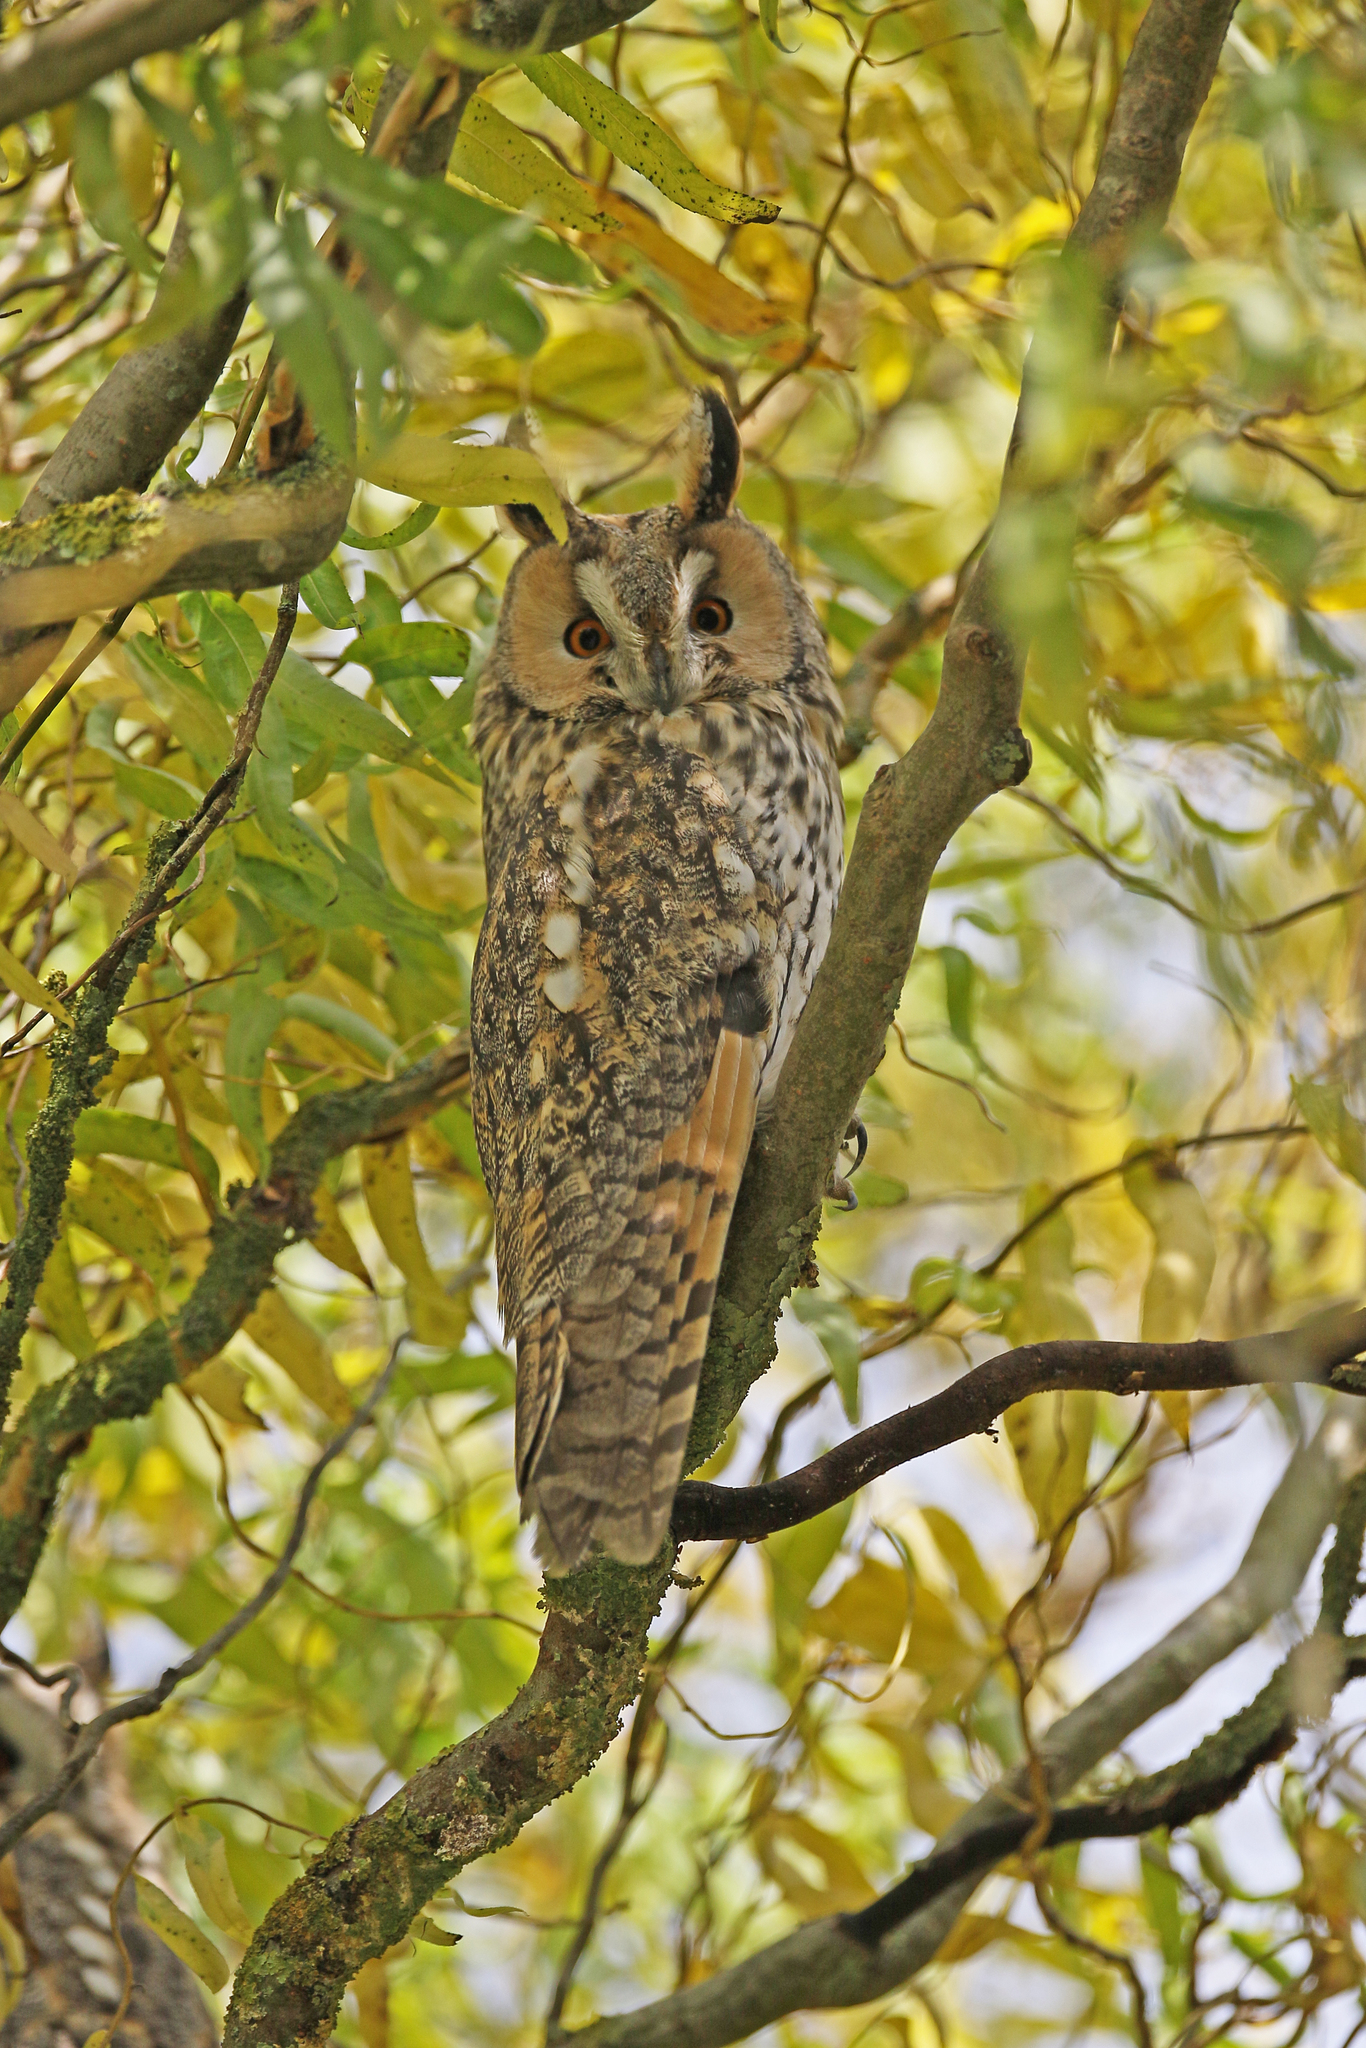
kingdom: Animalia
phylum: Chordata
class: Aves
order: Strigiformes
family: Strigidae
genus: Asio
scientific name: Asio otus
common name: Long-eared owl
